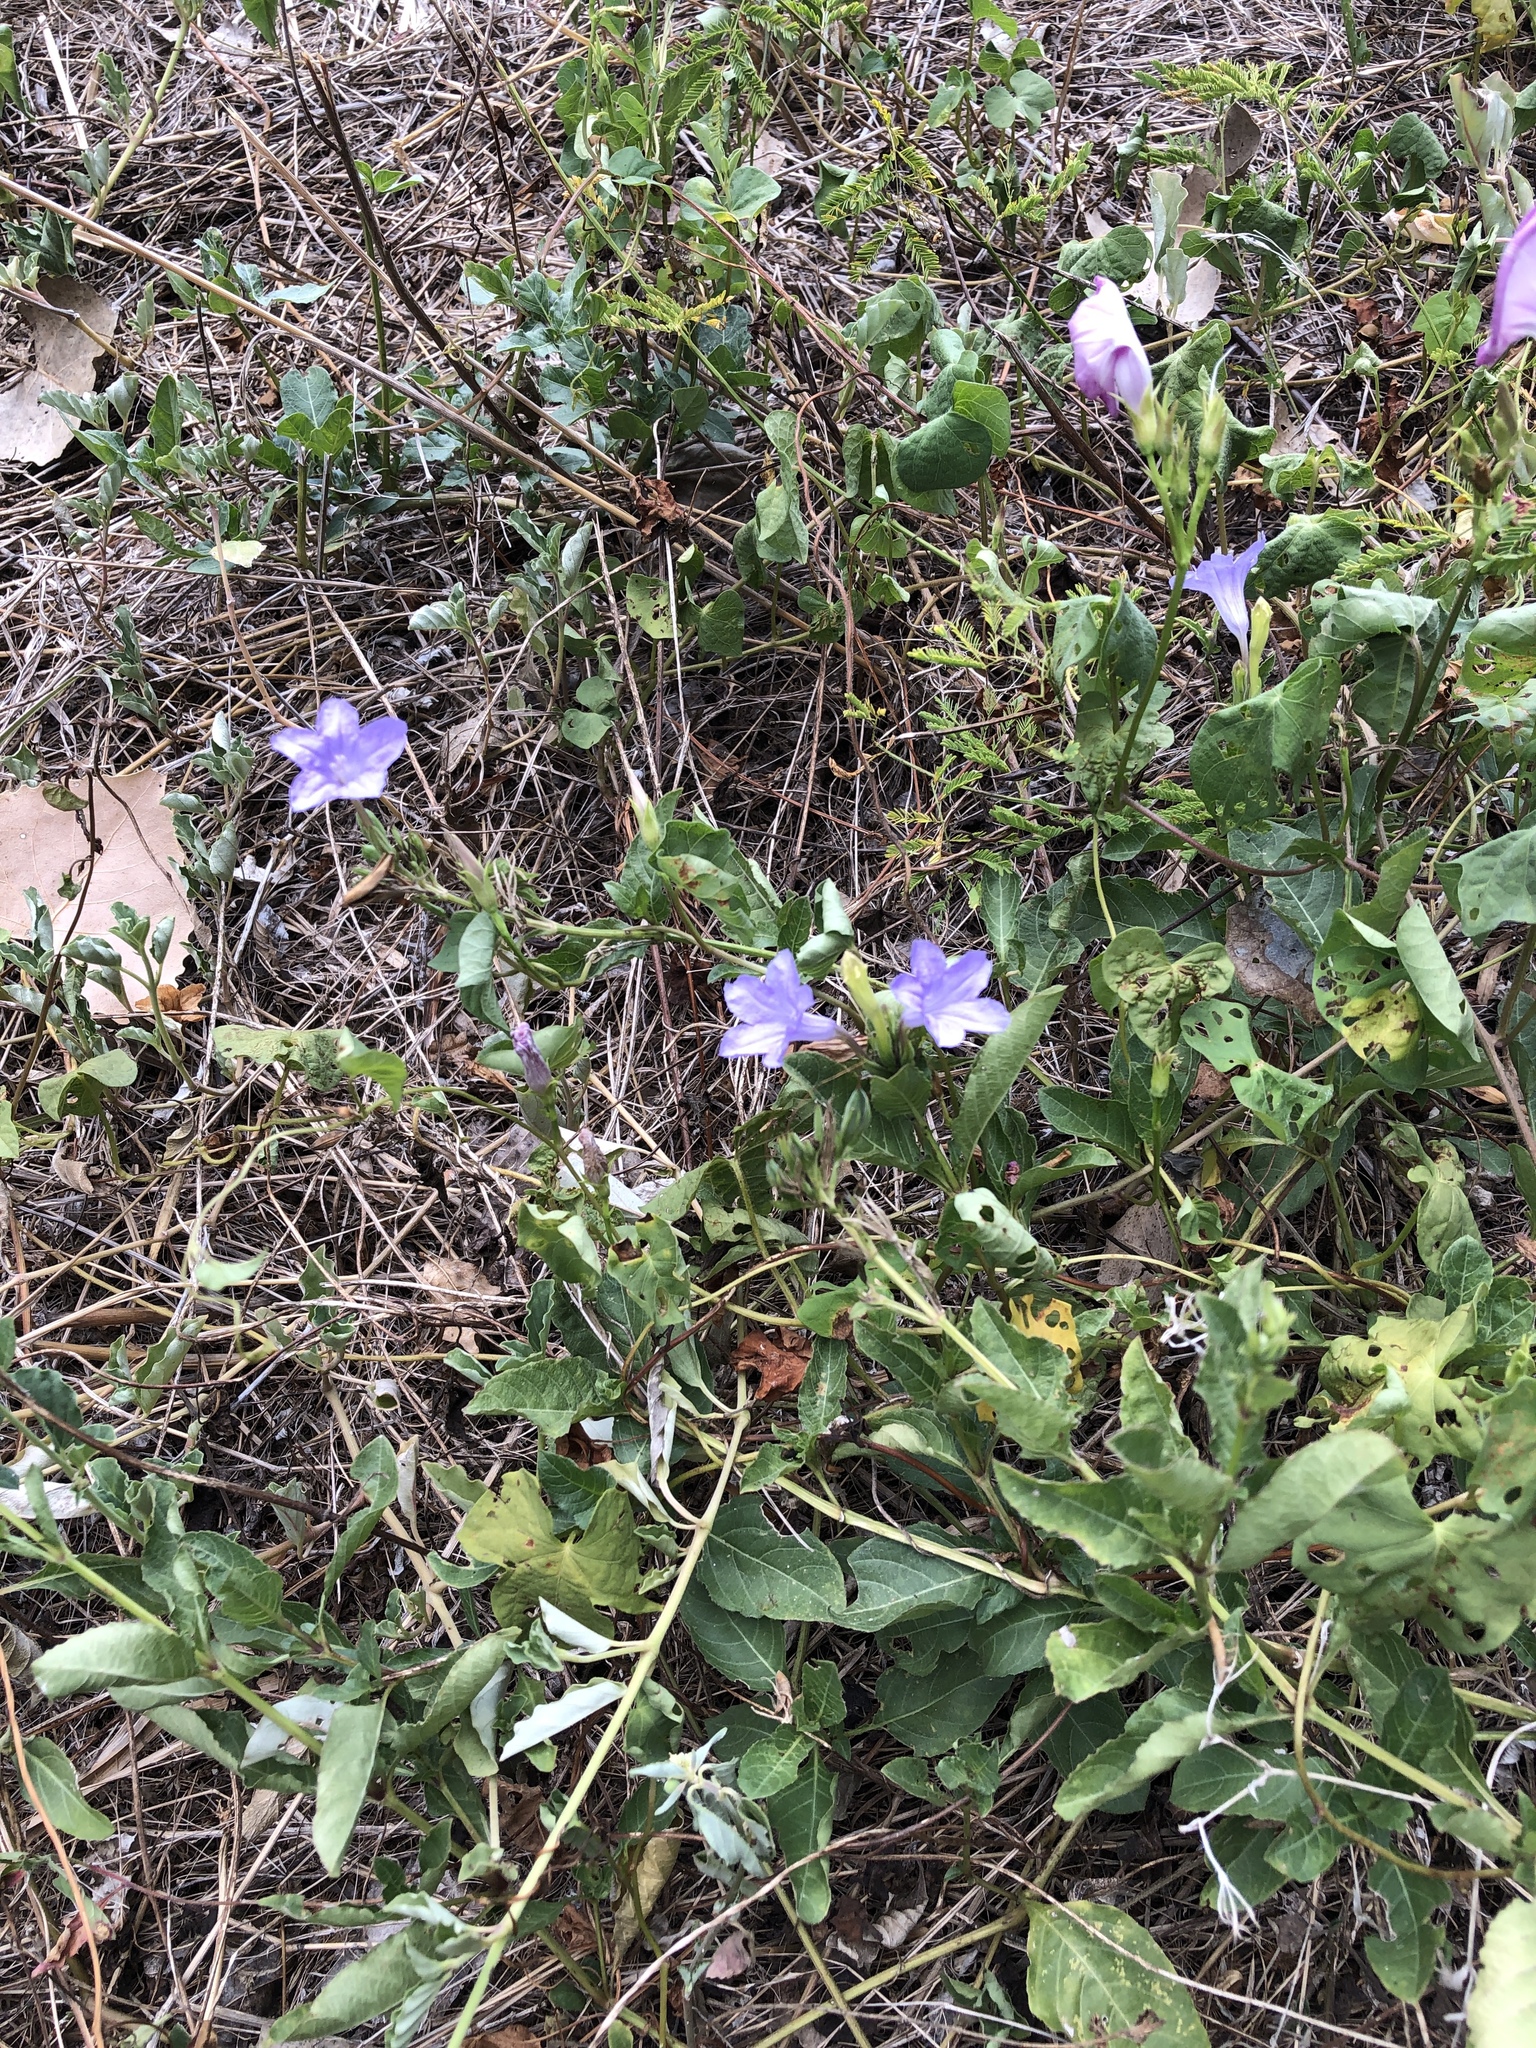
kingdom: Plantae
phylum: Tracheophyta
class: Magnoliopsida
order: Lamiales
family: Acanthaceae
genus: Ruellia
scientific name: Ruellia ciliatiflora
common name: Hairyflower wild petunia
